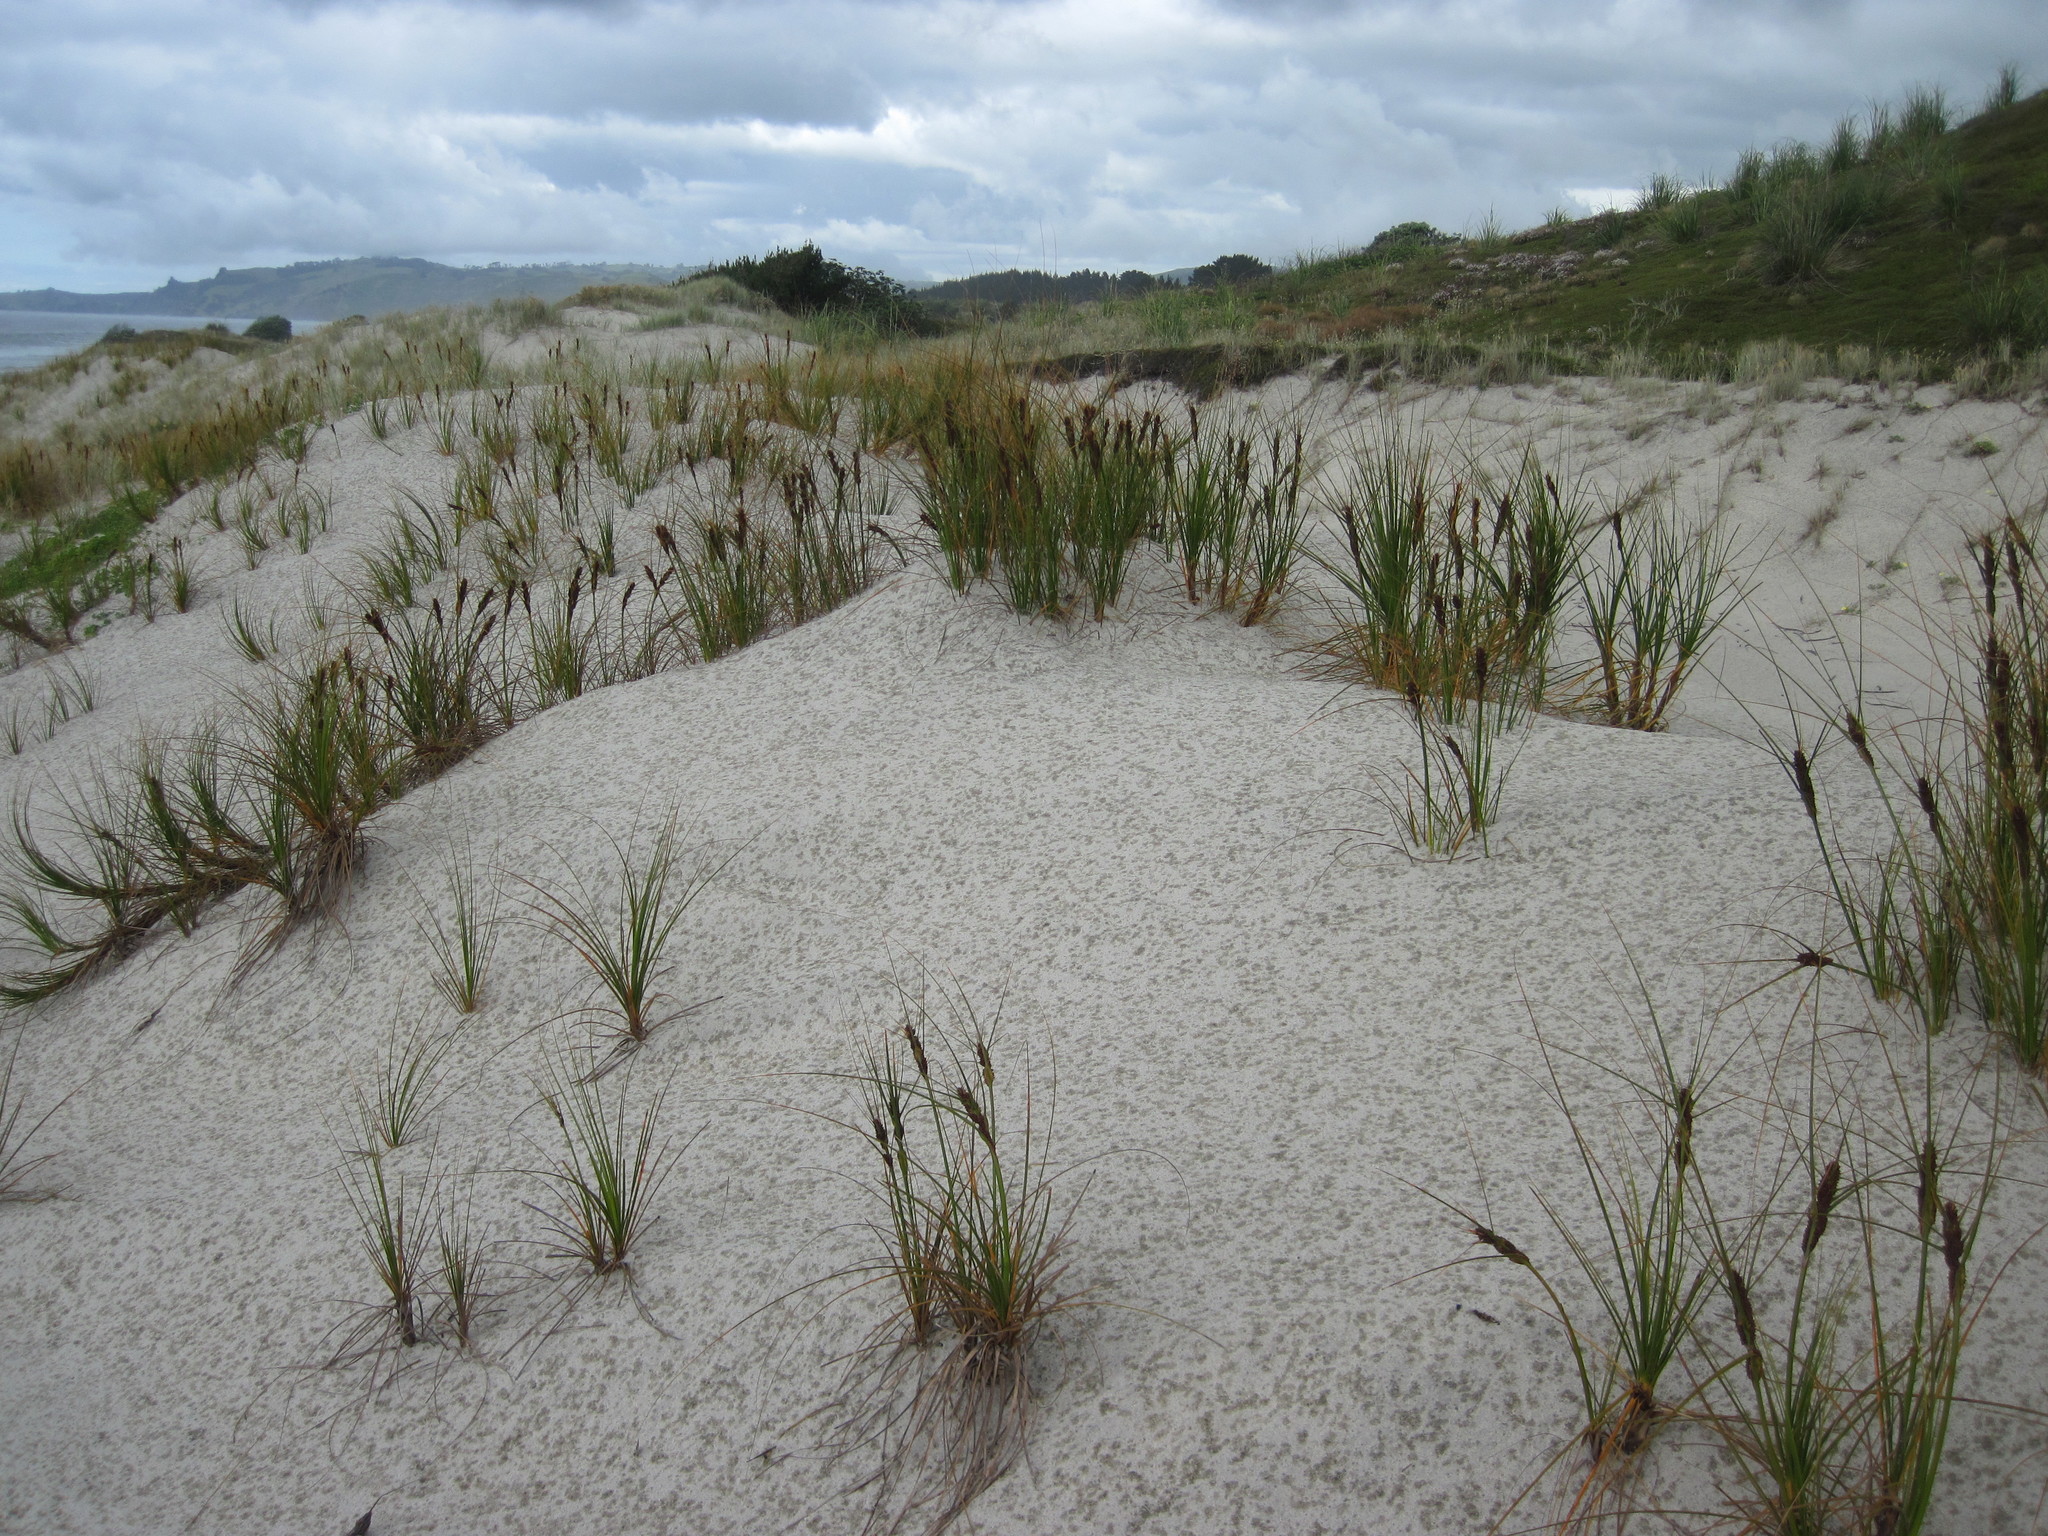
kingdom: Plantae
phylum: Tracheophyta
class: Liliopsida
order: Poales
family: Cyperaceae
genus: Ficinia
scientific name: Ficinia spiralis
